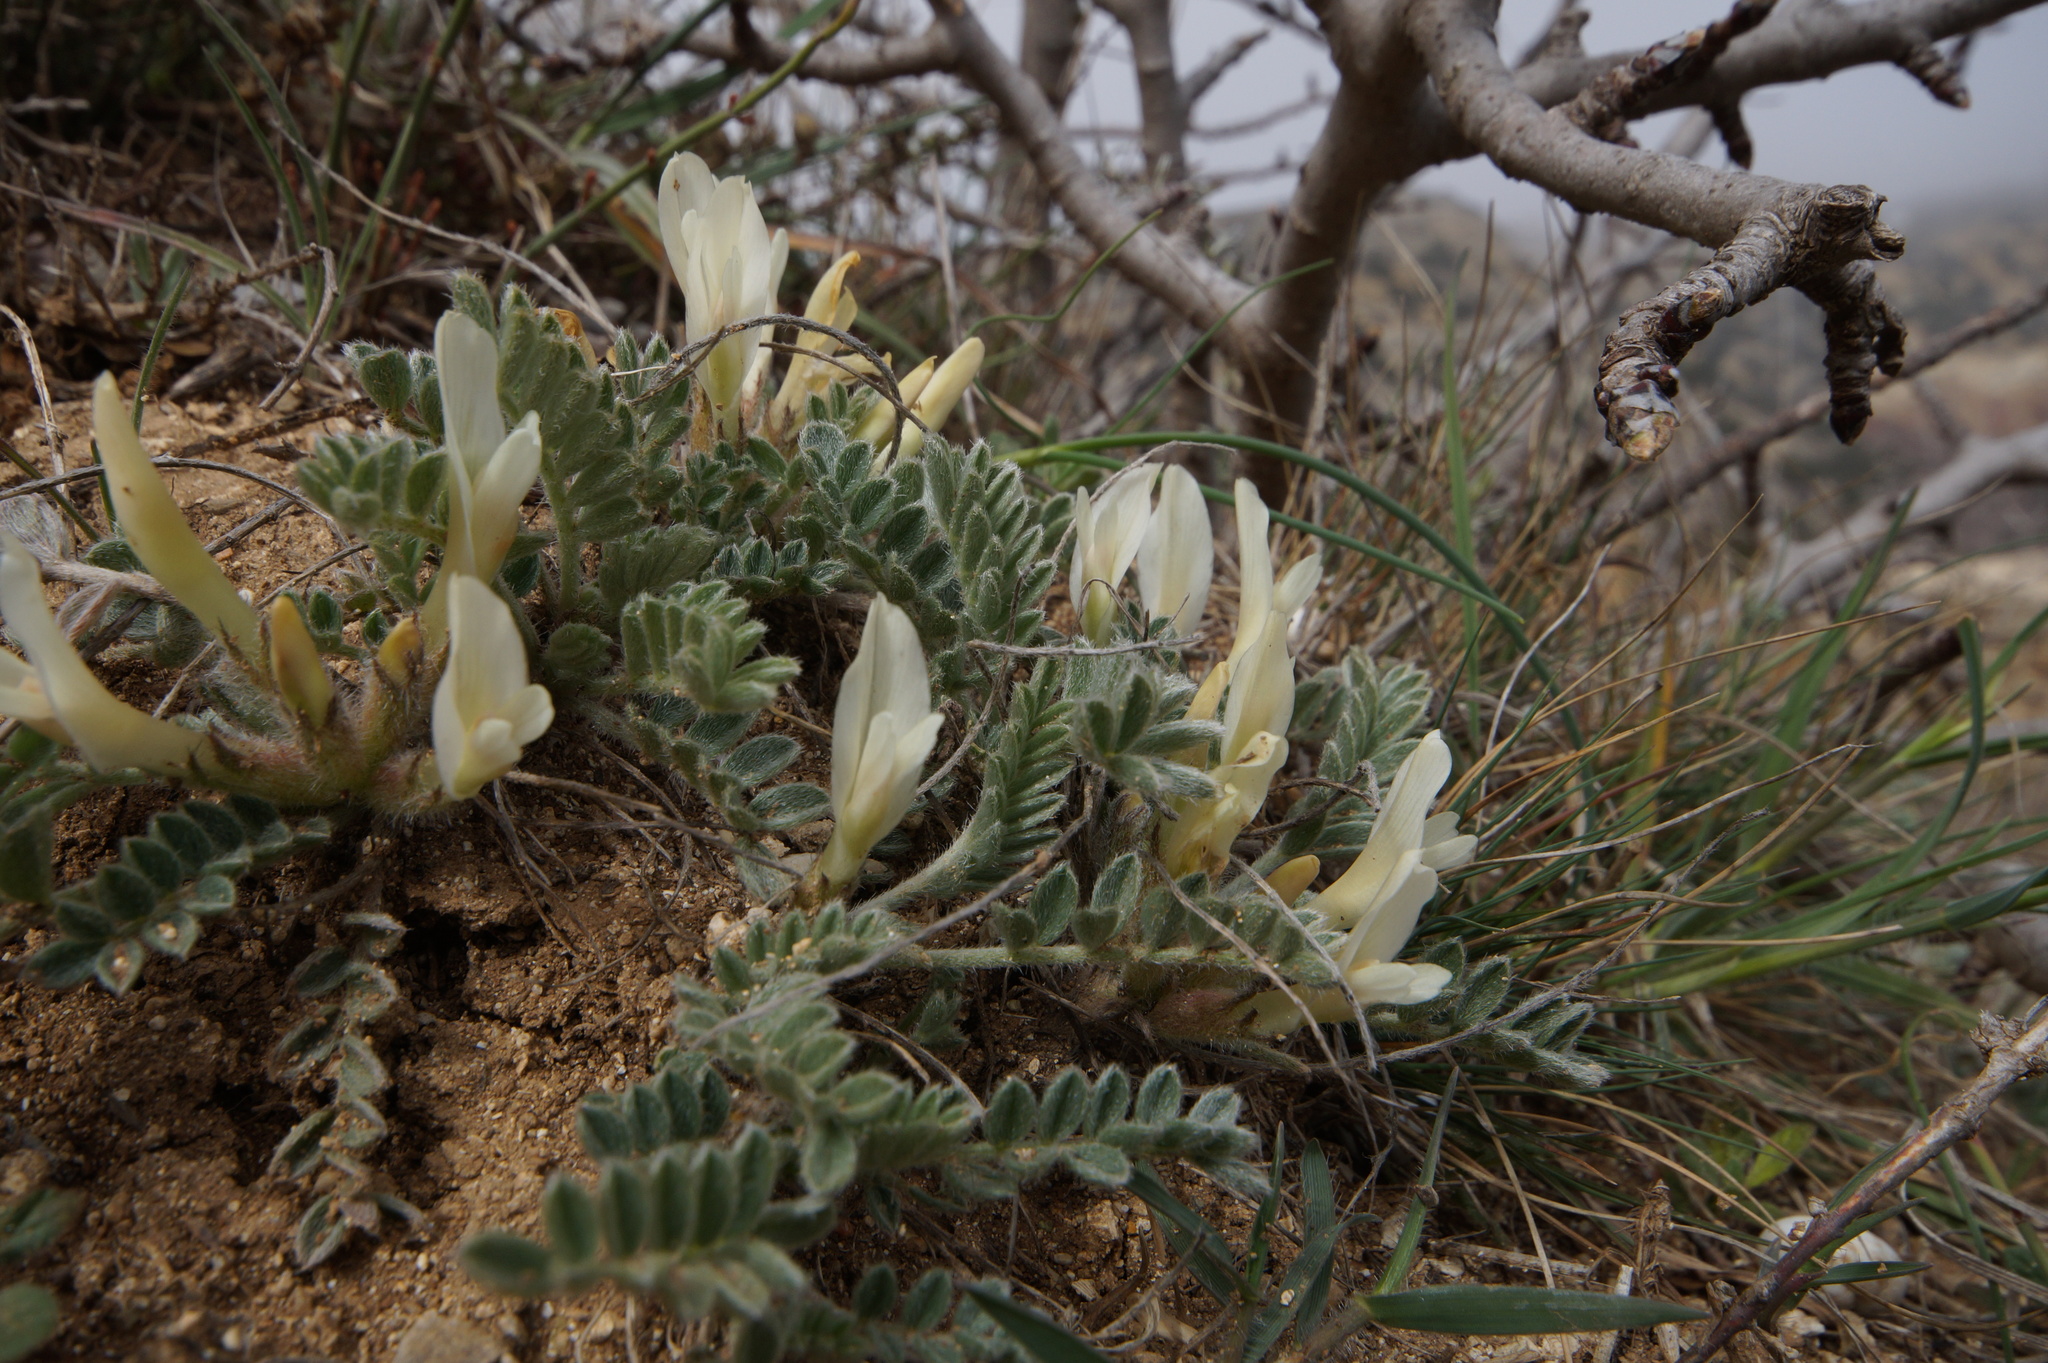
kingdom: Plantae
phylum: Tracheophyta
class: Magnoliopsida
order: Fabales
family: Fabaceae
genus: Astragalus
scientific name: Astragalus rupifragus
